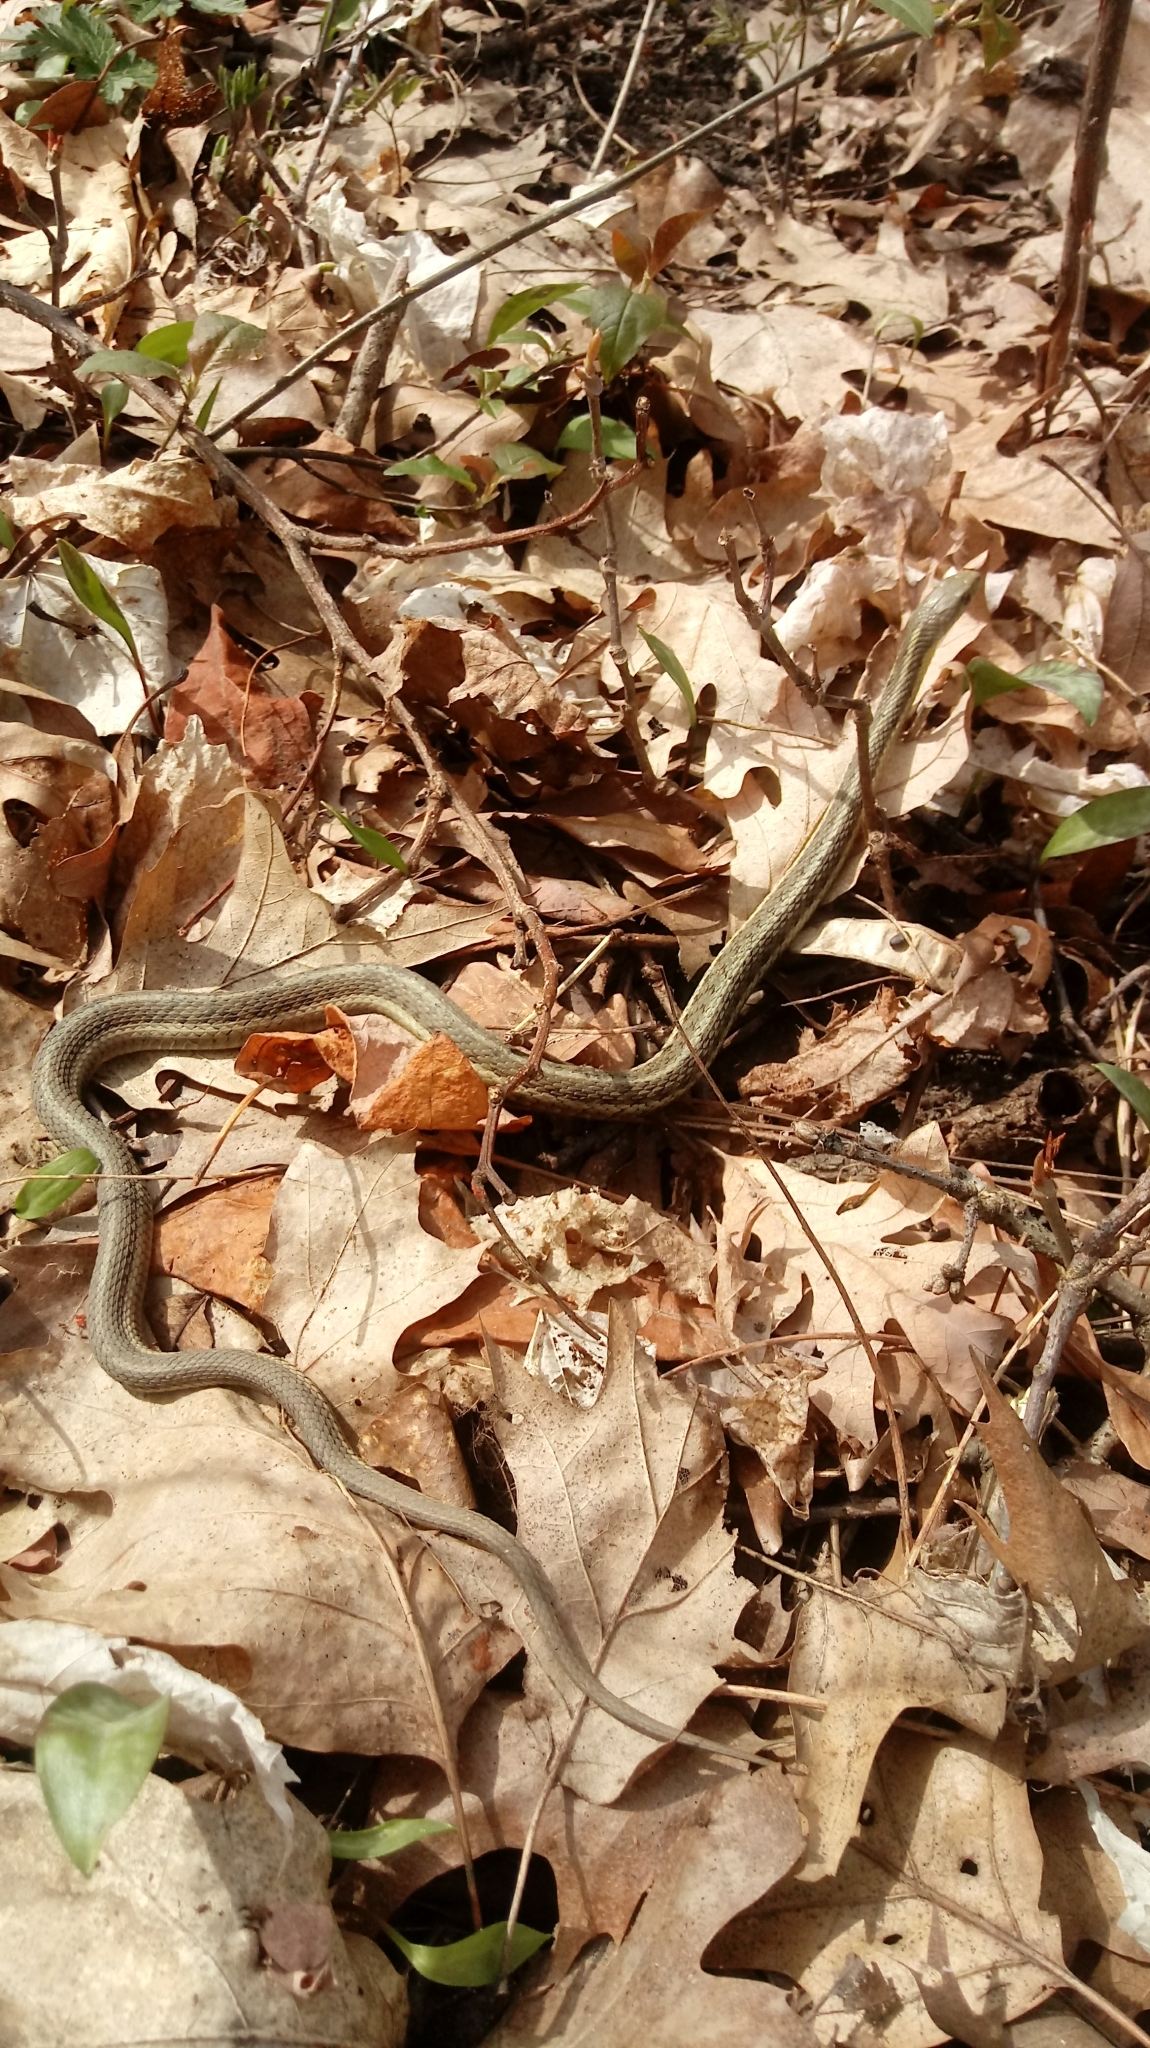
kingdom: Animalia
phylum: Chordata
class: Squamata
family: Colubridae
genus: Thamnophis
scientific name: Thamnophis sirtalis
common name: Common garter snake
